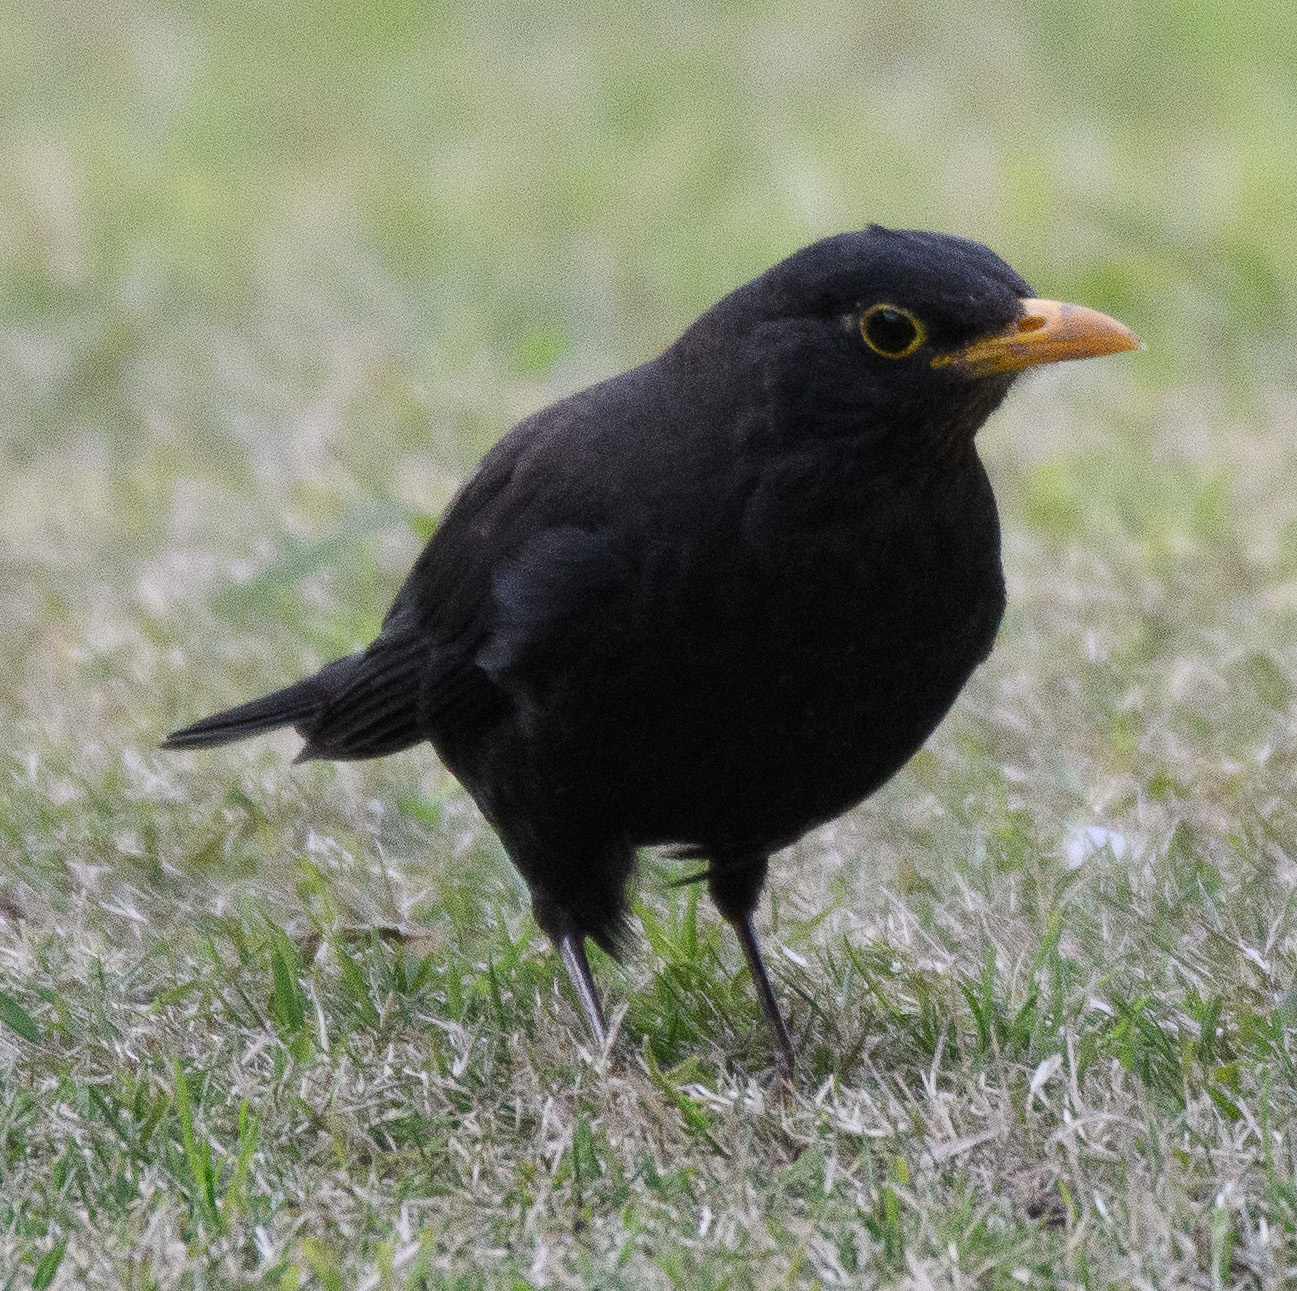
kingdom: Animalia
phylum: Chordata
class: Aves
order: Passeriformes
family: Turdidae
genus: Turdus
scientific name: Turdus mandarinus
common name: Chinese blackbird
